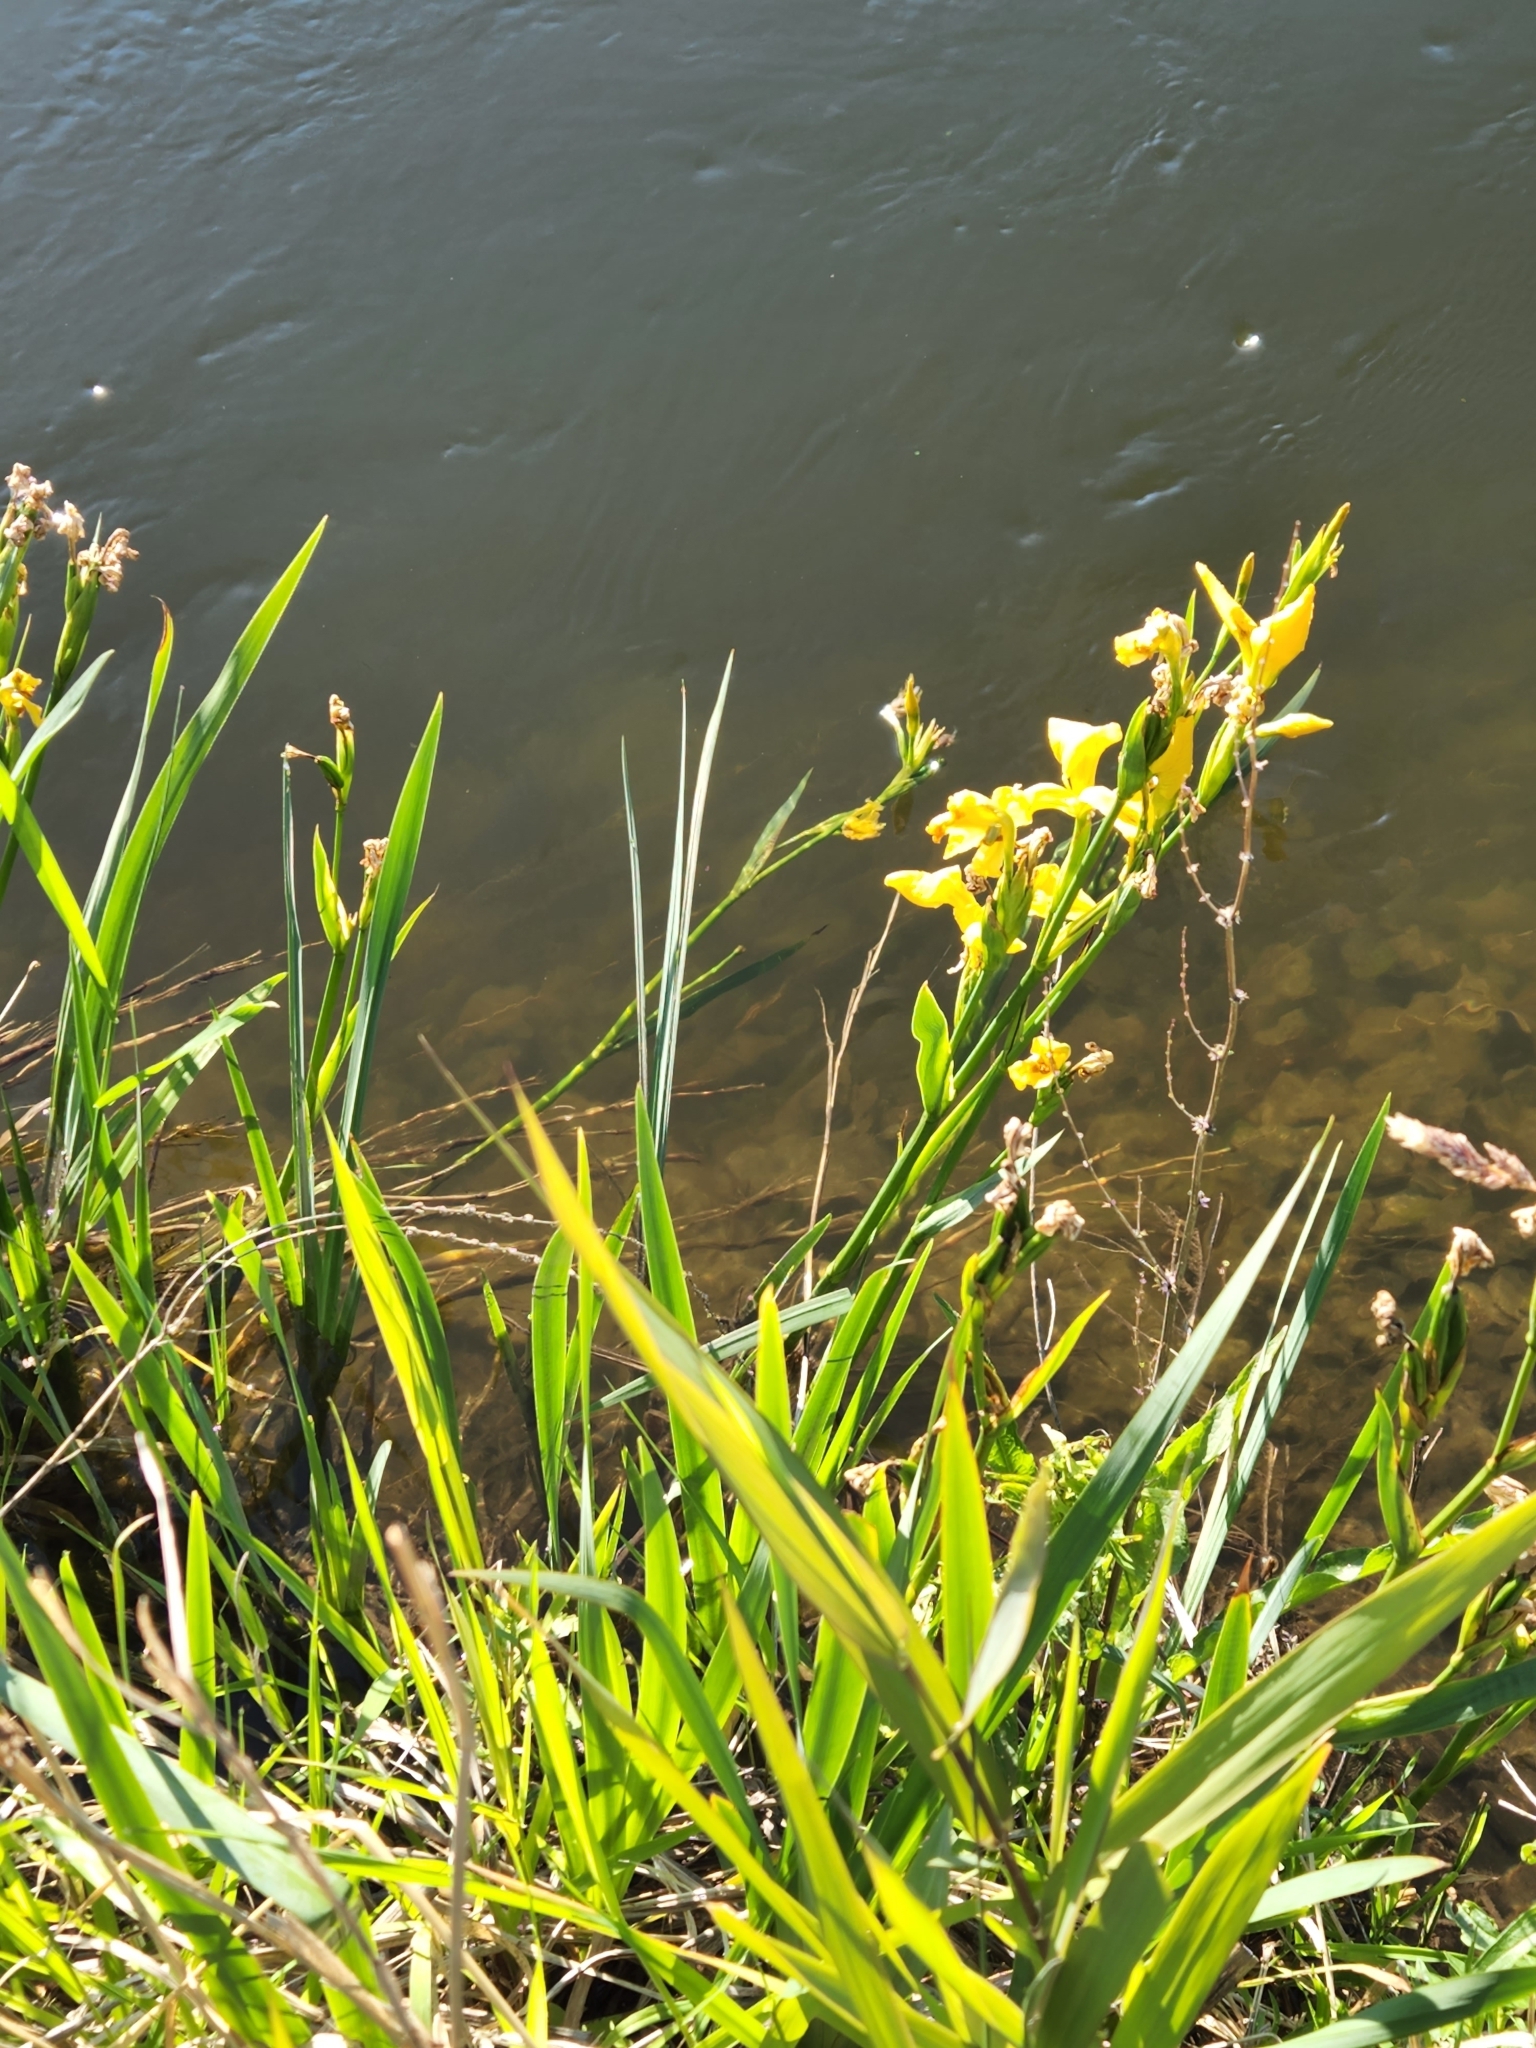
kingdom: Plantae
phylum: Tracheophyta
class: Liliopsida
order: Asparagales
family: Iridaceae
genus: Iris
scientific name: Iris pseudacorus
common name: Yellow flag
